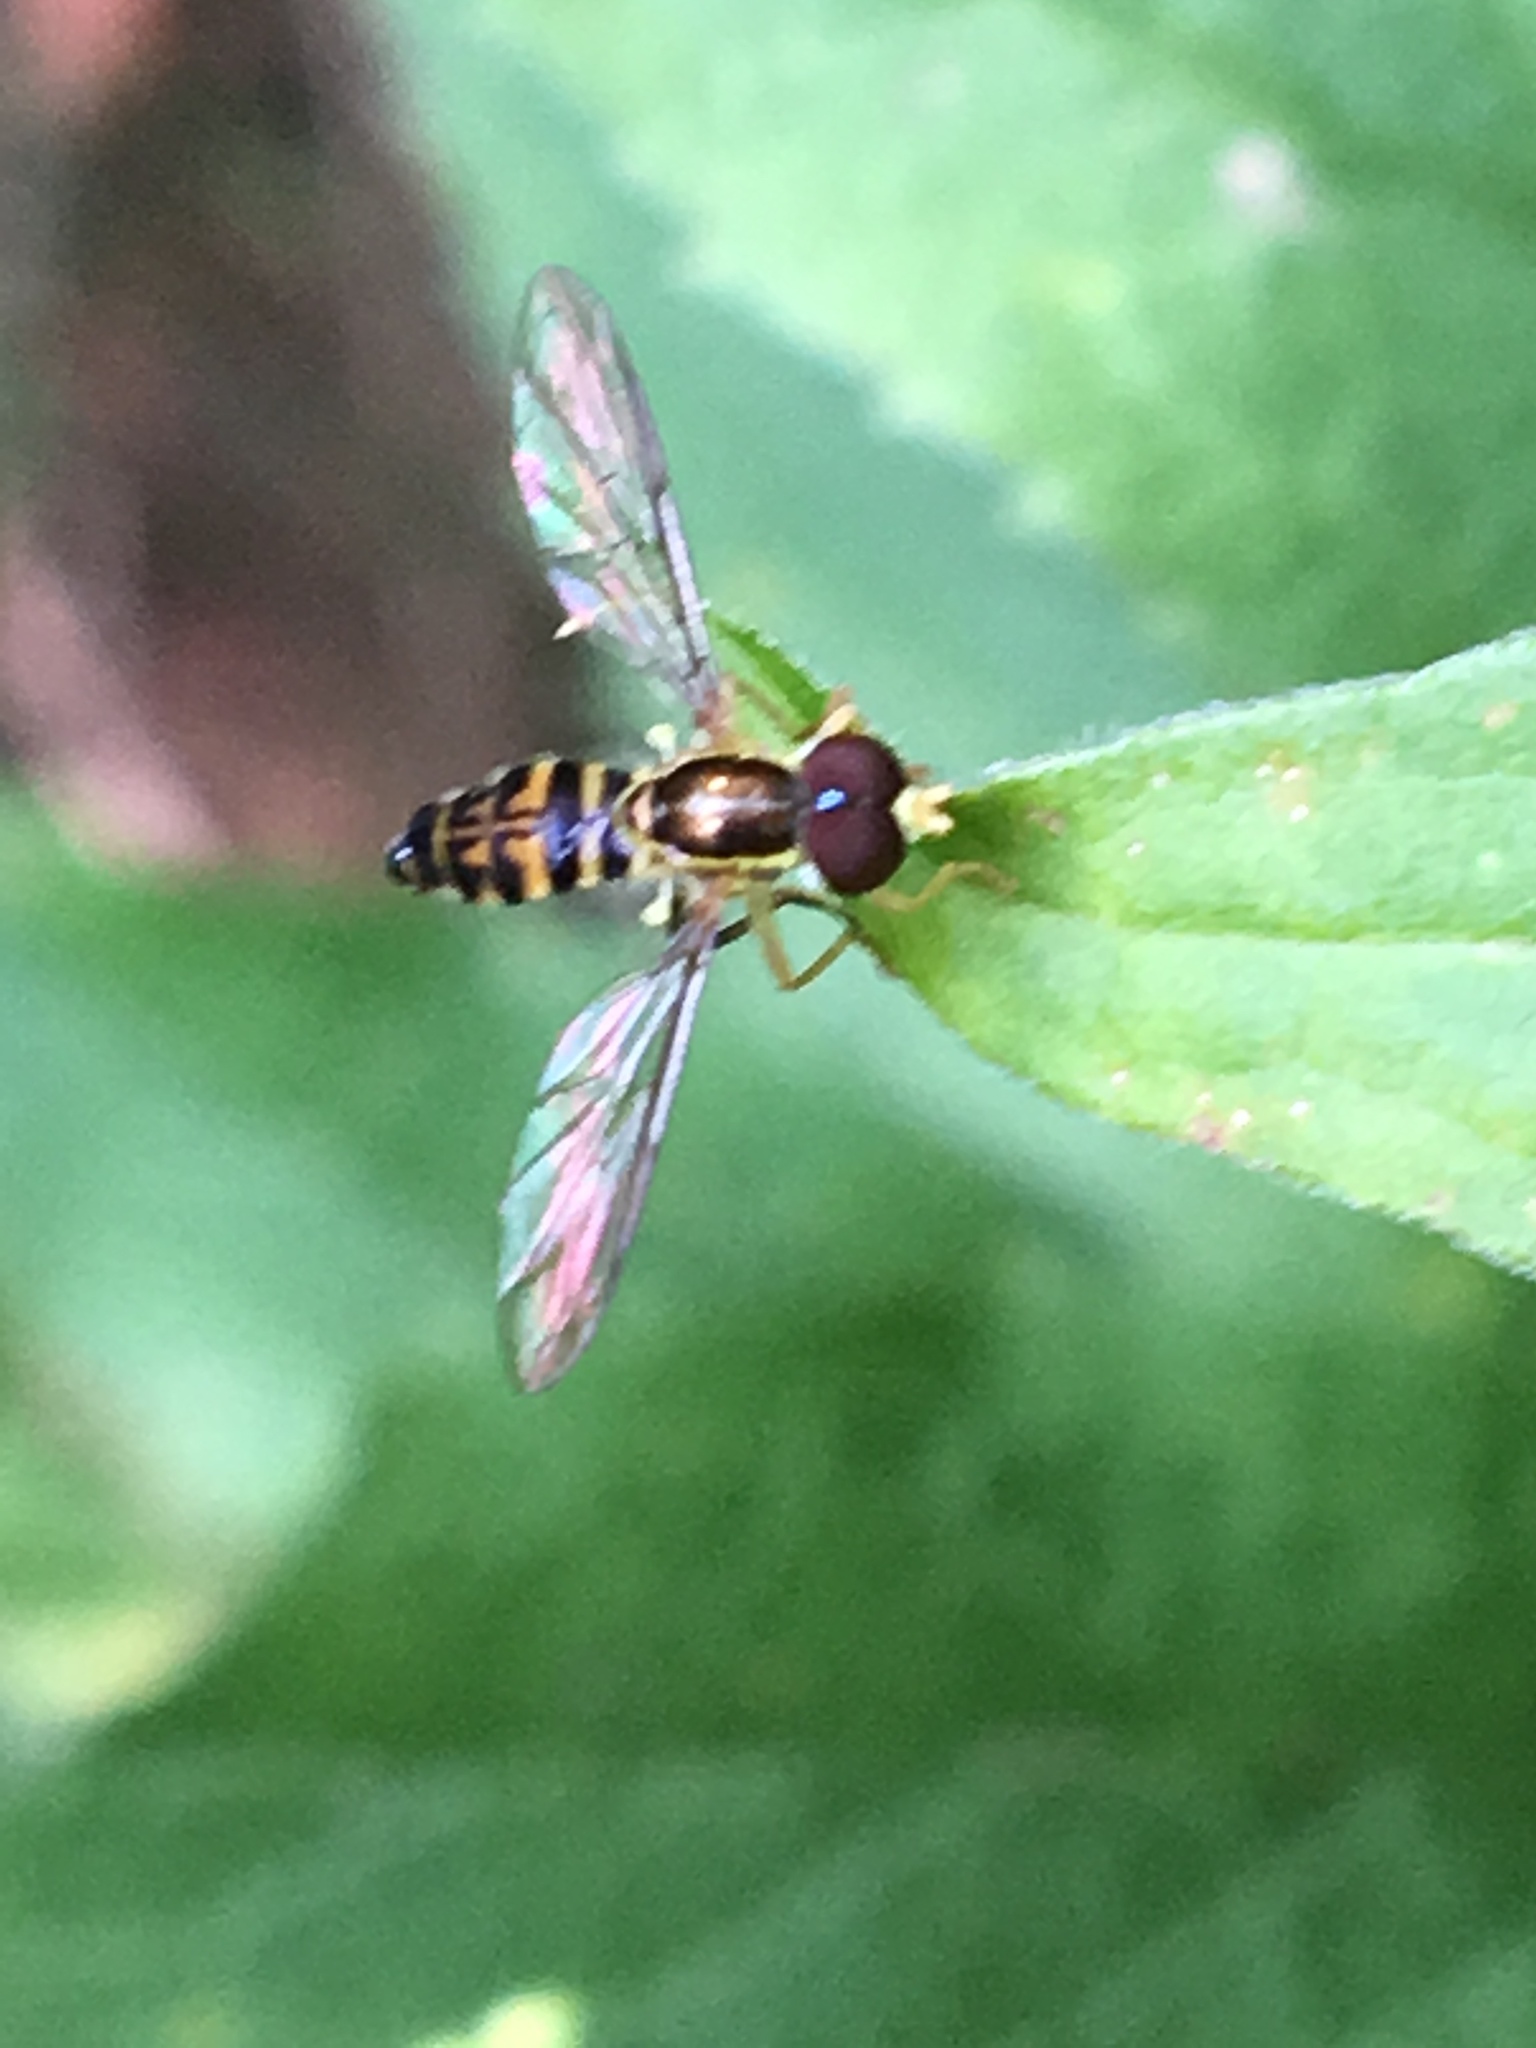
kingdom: Animalia
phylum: Arthropoda
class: Insecta
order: Diptera
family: Syrphidae
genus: Toxomerus
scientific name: Toxomerus geminatus
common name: Eastern calligrapher
